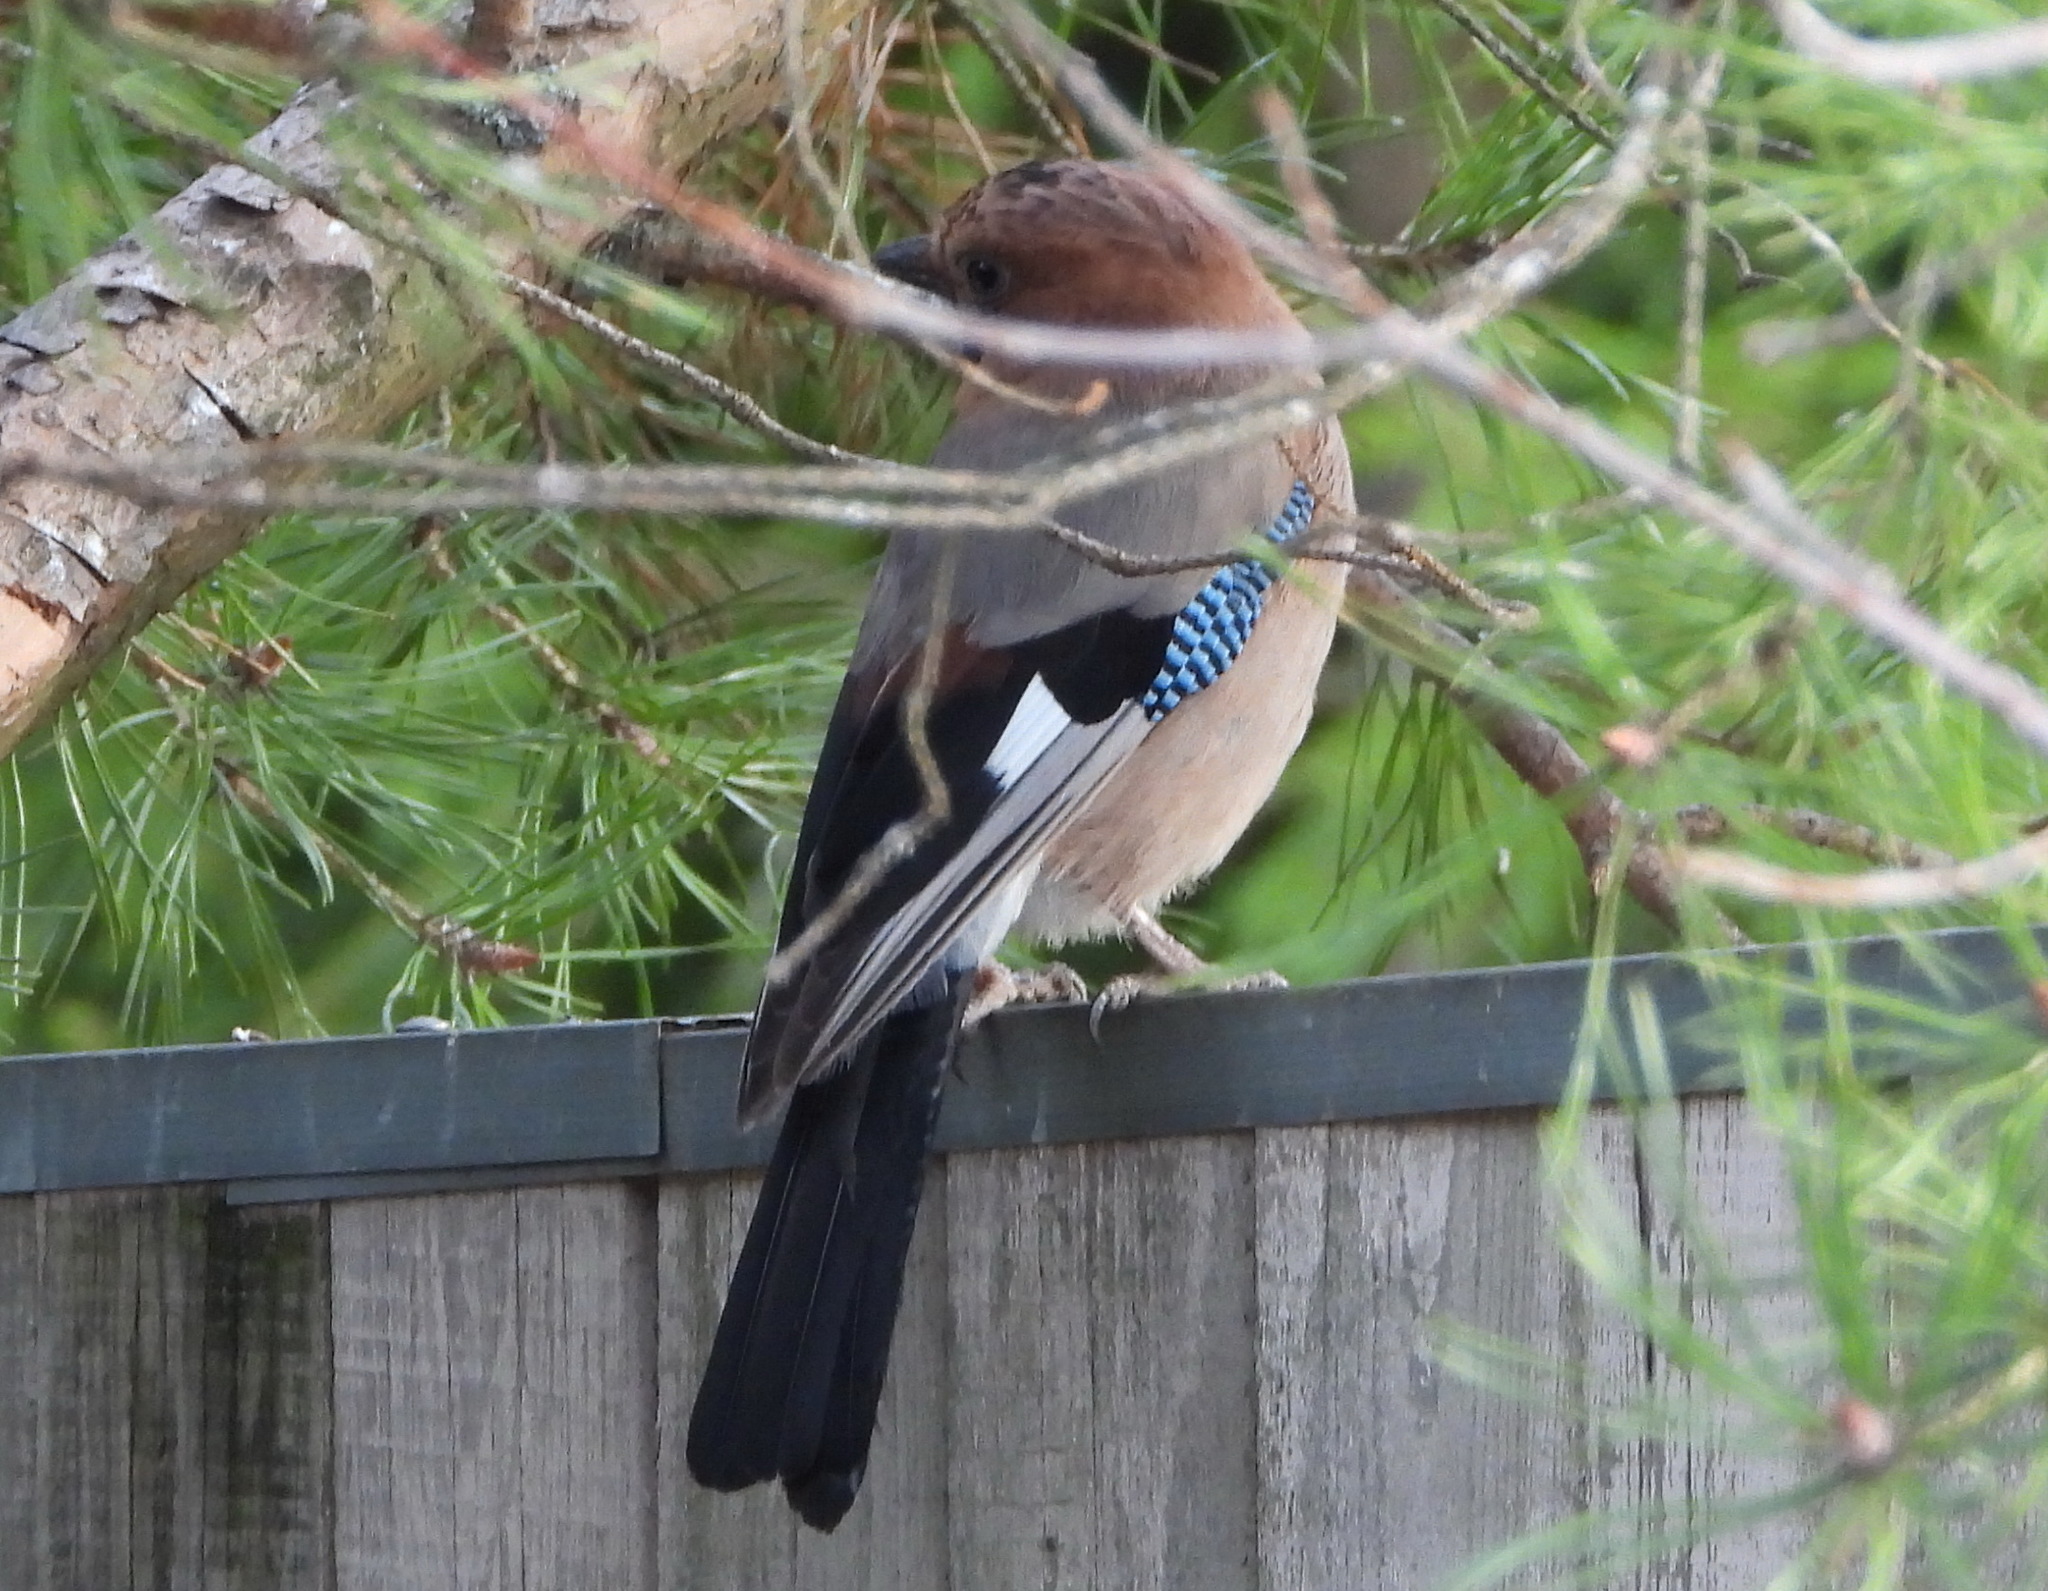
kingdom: Animalia
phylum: Chordata
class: Aves
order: Passeriformes
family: Corvidae
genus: Garrulus
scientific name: Garrulus glandarius
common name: Eurasian jay
